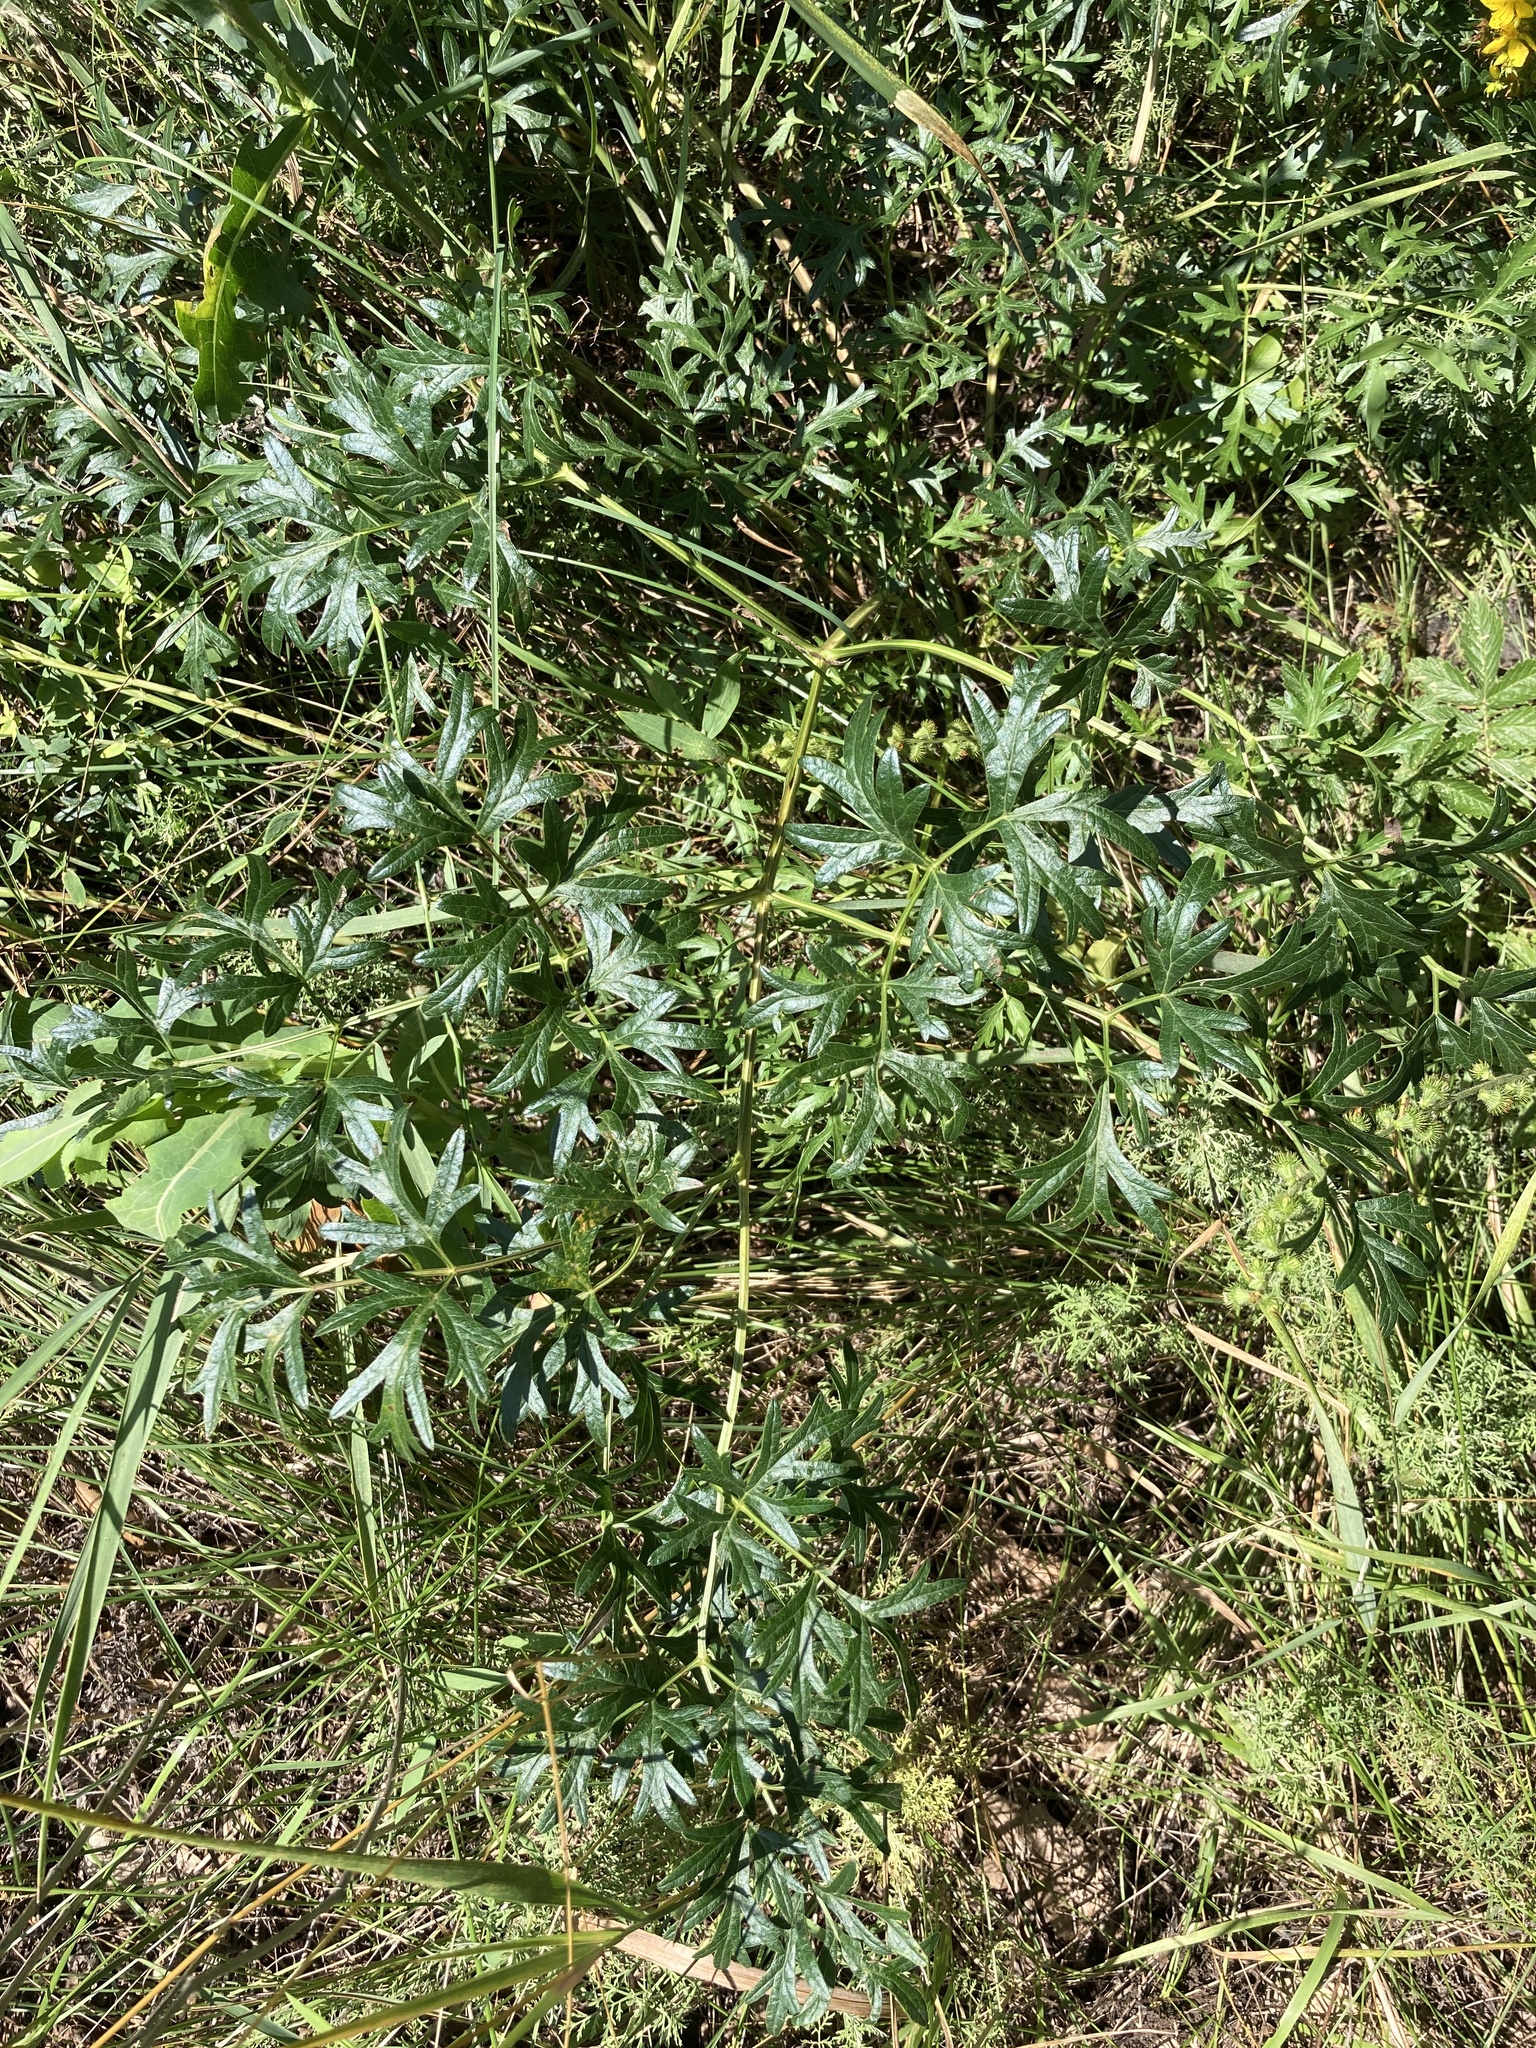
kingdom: Plantae
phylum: Tracheophyta
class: Magnoliopsida
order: Apiales
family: Apiaceae
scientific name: Apiaceae
